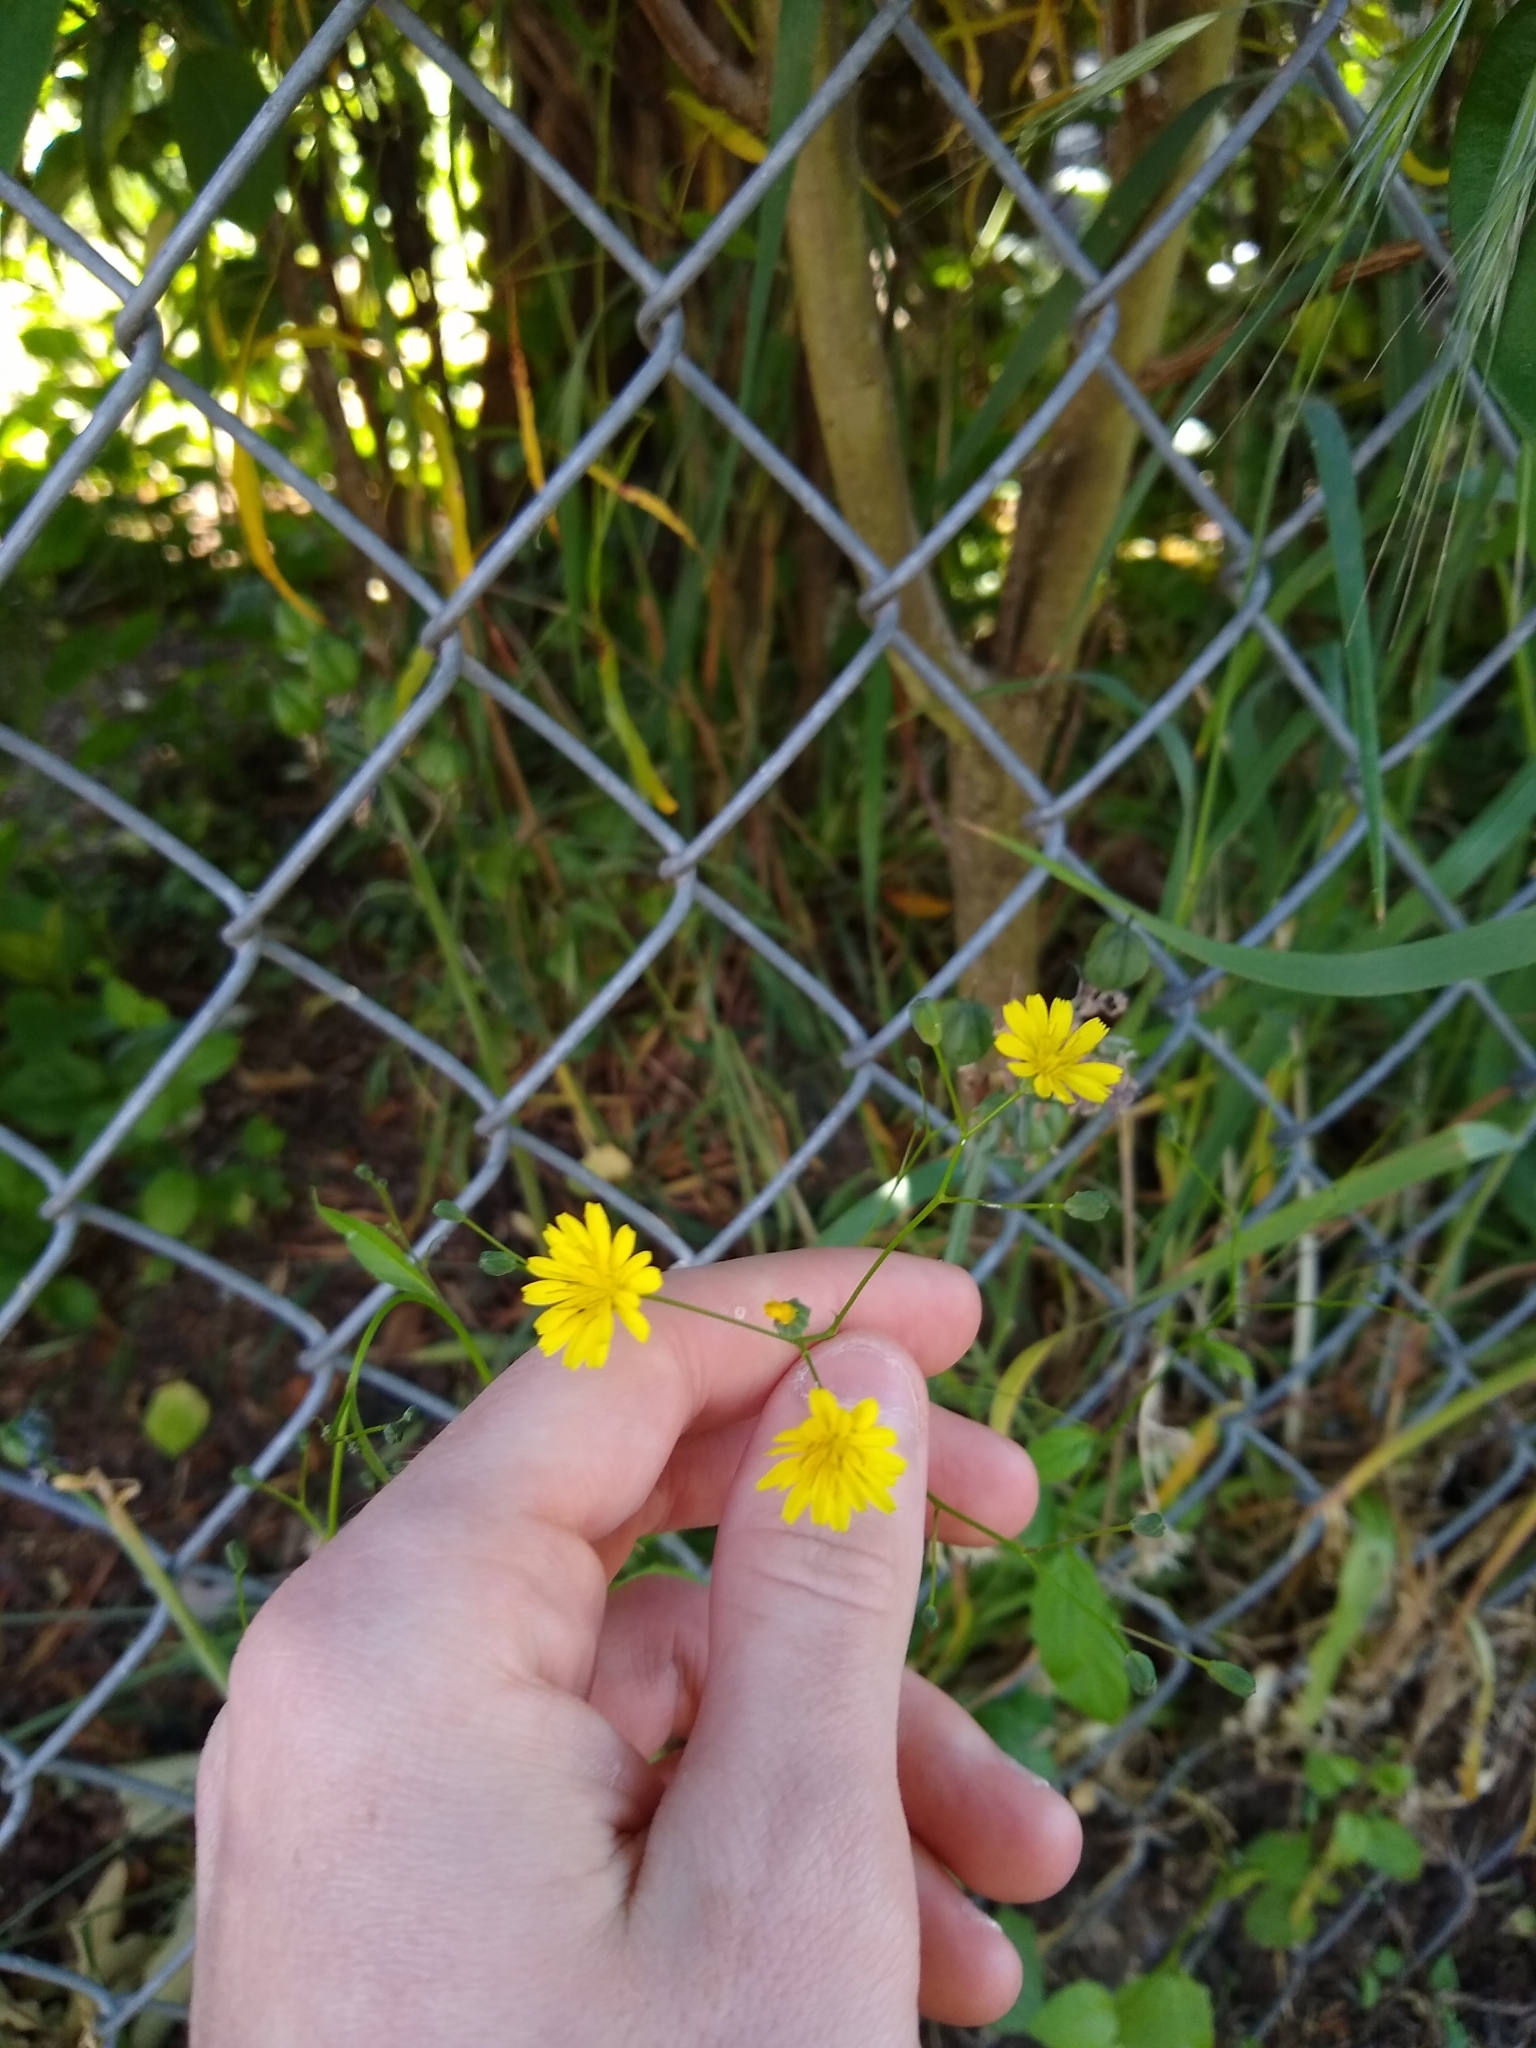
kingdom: Plantae
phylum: Tracheophyta
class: Magnoliopsida
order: Asterales
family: Asteraceae
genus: Lapsana
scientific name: Lapsana communis
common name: Nipplewort
